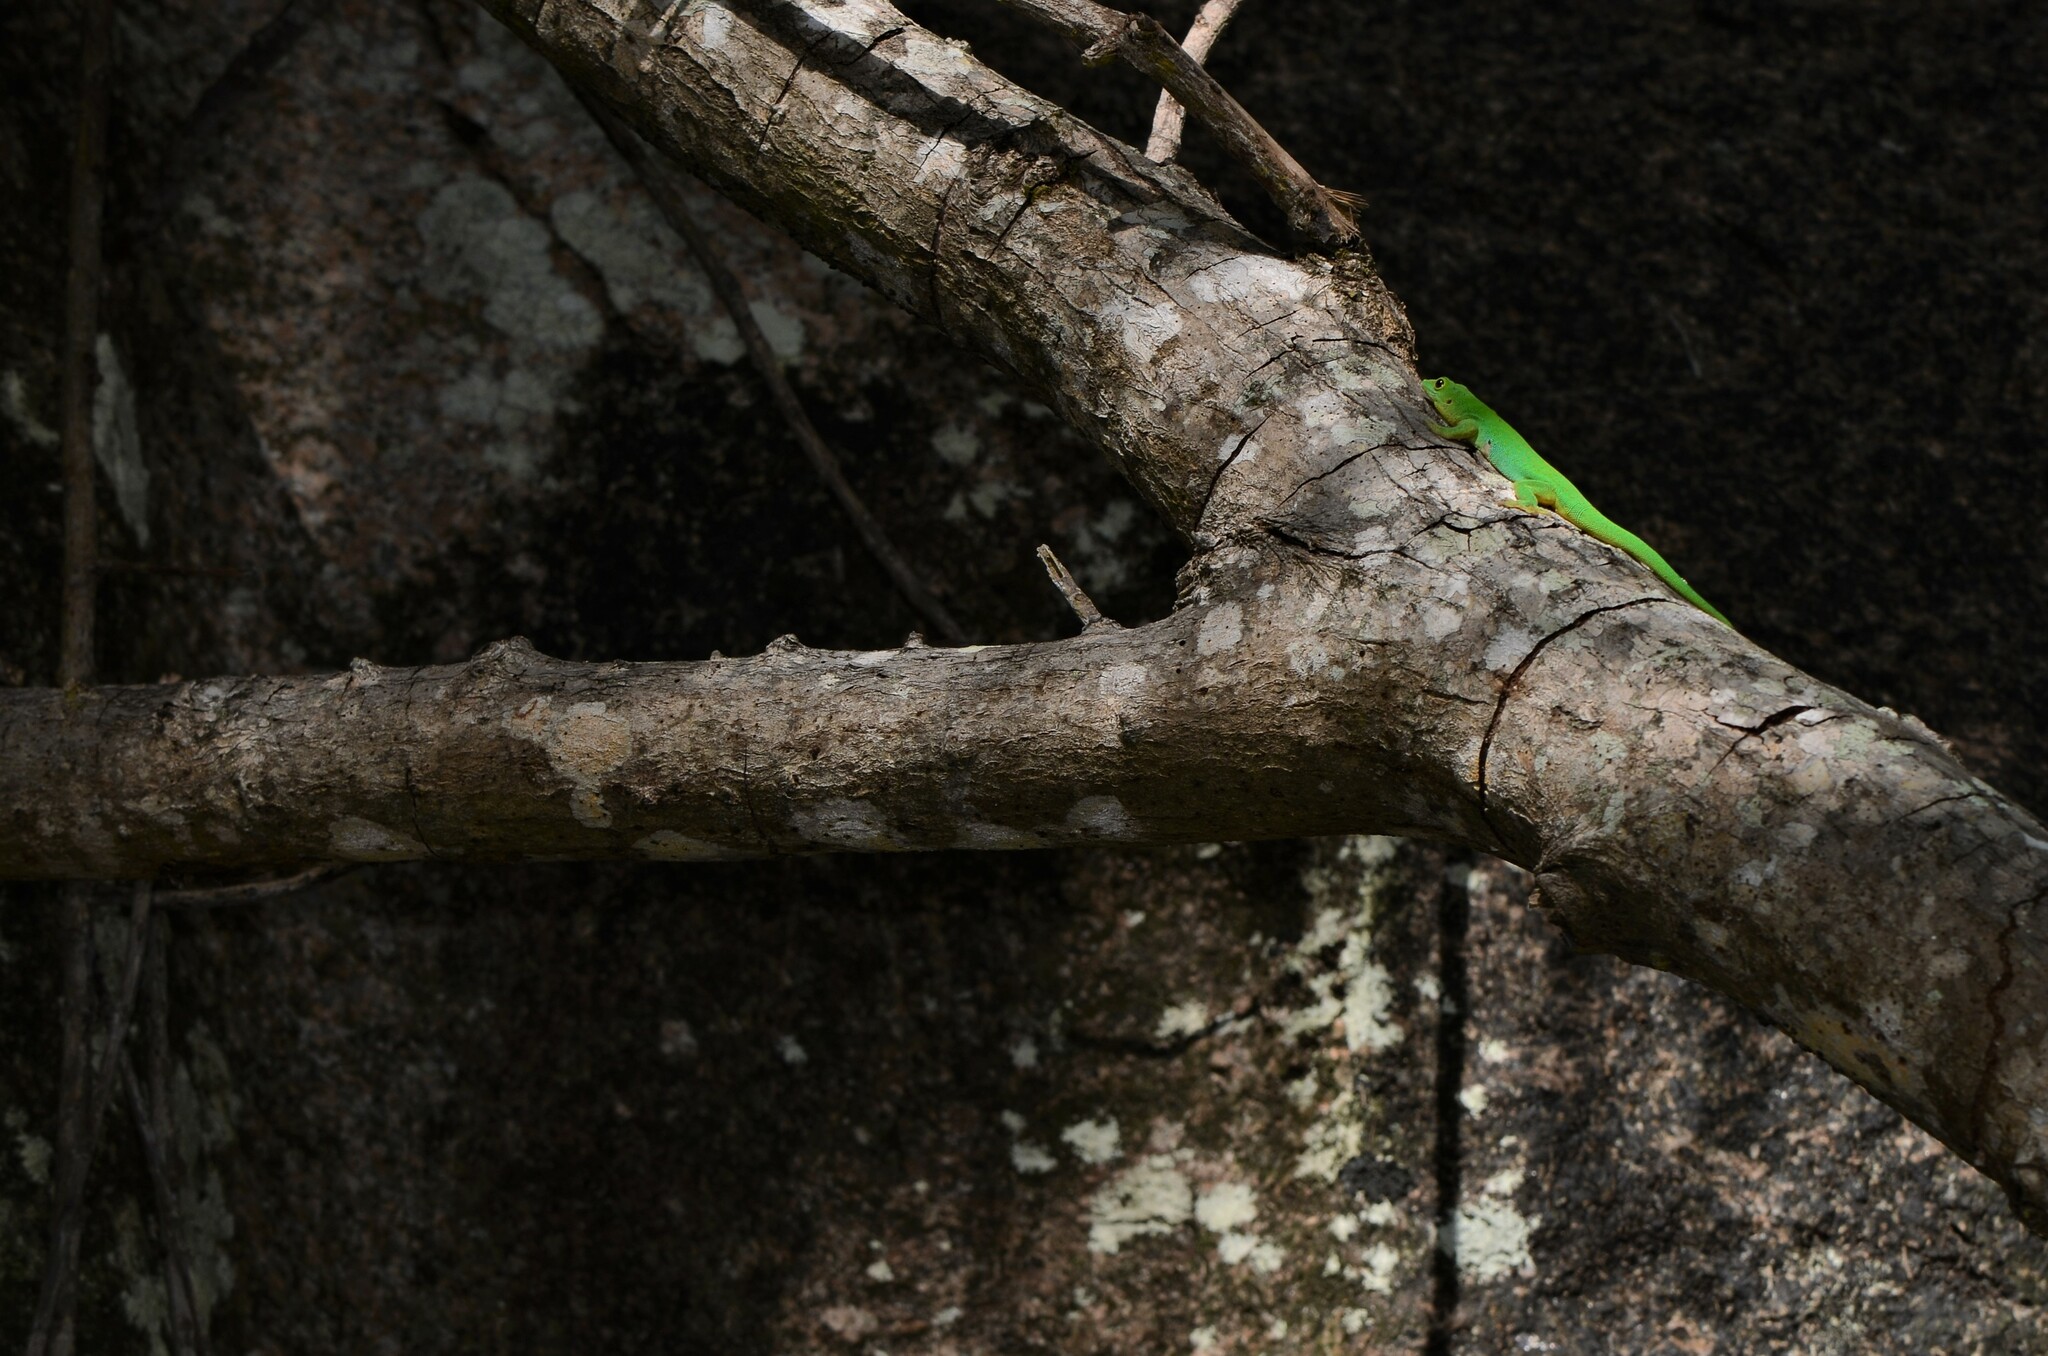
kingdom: Animalia
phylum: Chordata
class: Squamata
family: Gekkonidae
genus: Phelsuma
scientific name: Phelsuma sundbergi
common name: Seychelles giant day gecko
